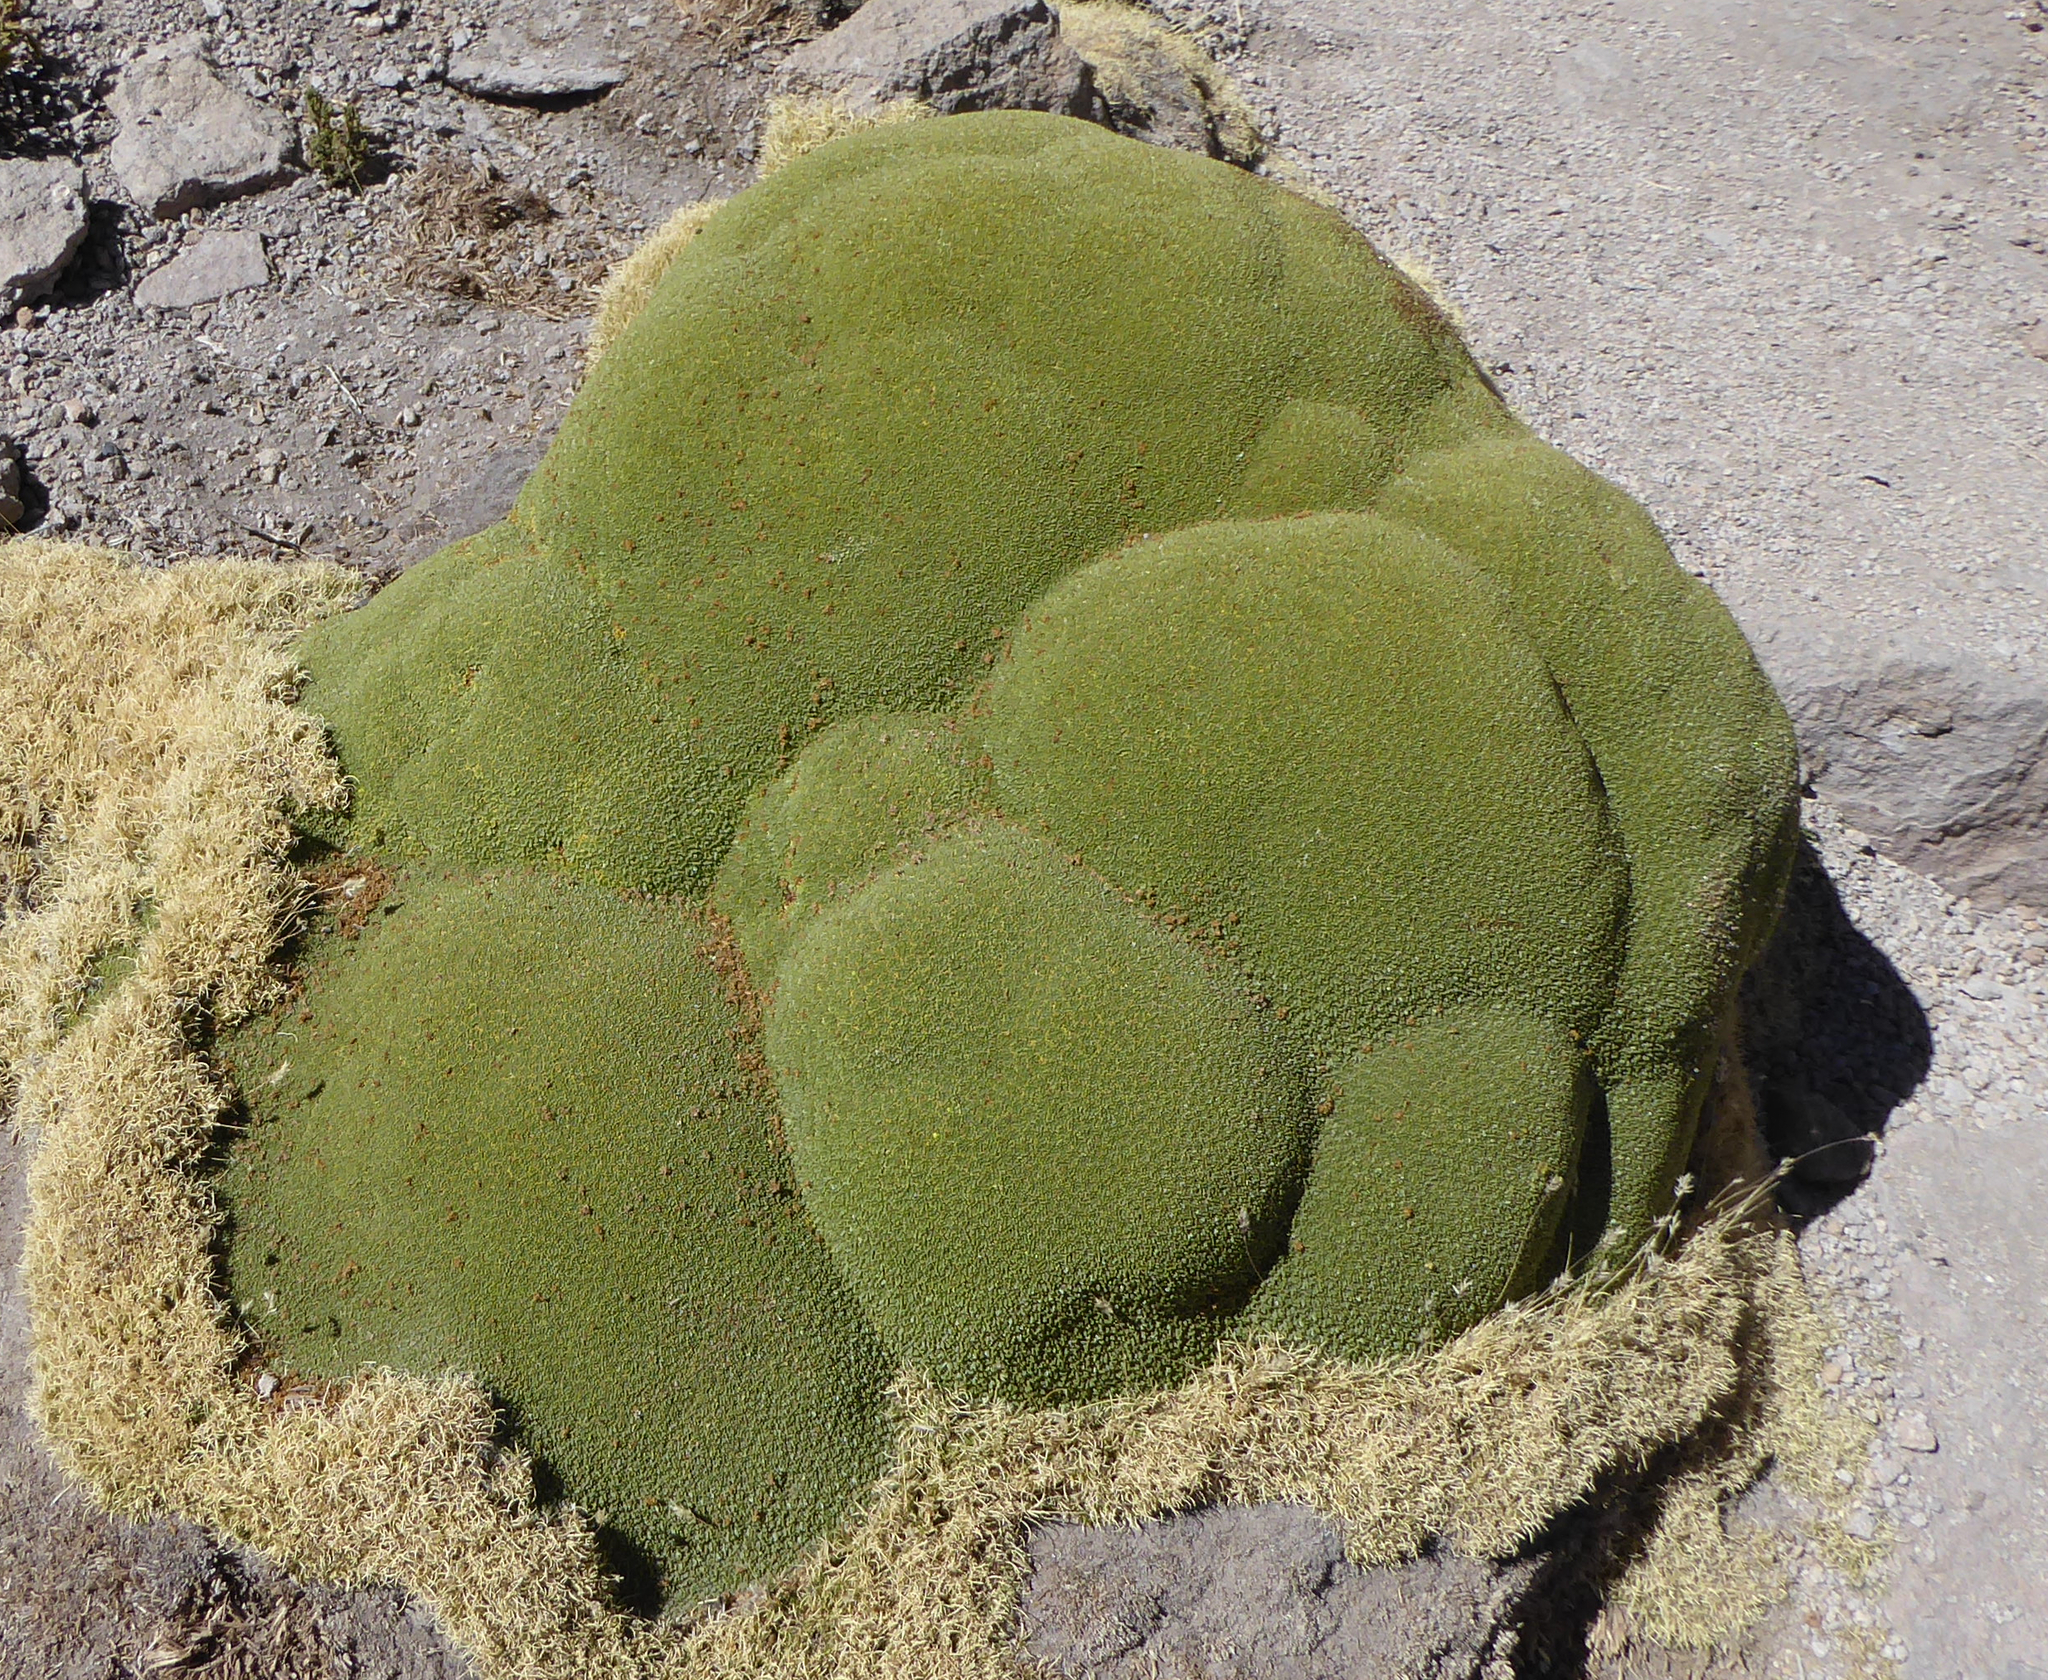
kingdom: Plantae
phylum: Tracheophyta
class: Magnoliopsida
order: Apiales
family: Apiaceae
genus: Azorella
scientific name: Azorella compacta
